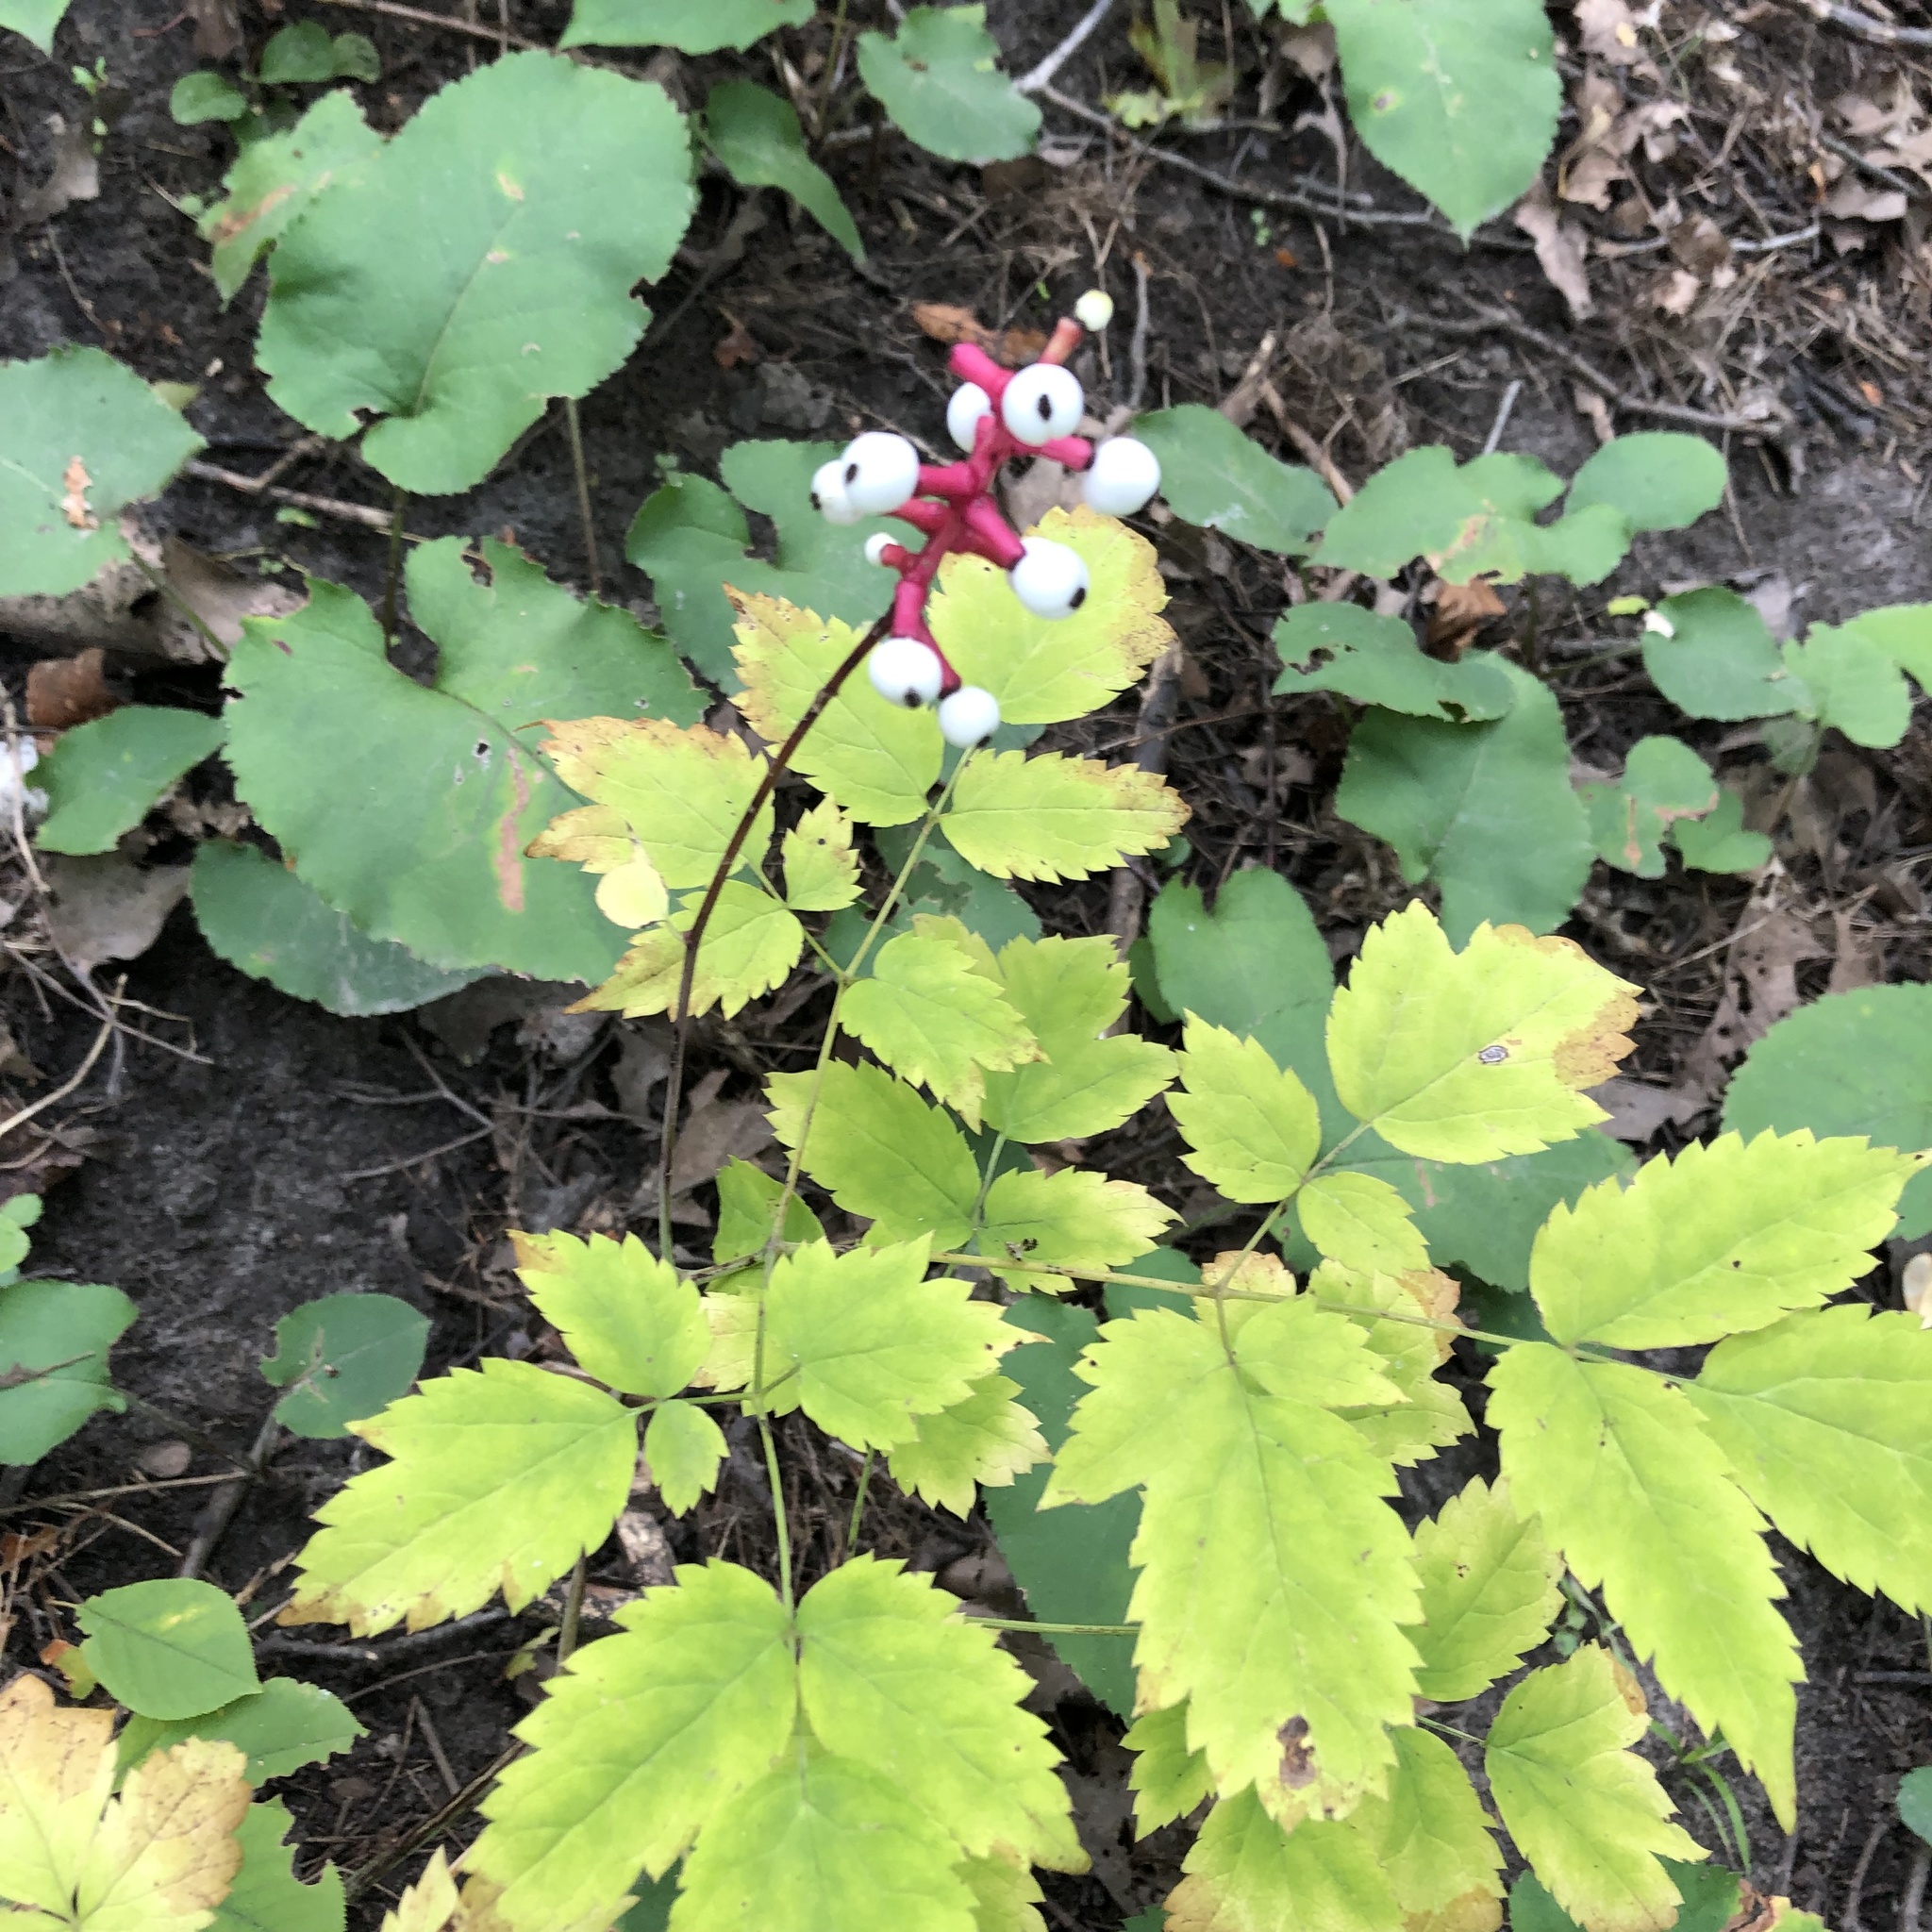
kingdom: Plantae
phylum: Tracheophyta
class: Magnoliopsida
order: Ranunculales
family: Ranunculaceae
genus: Actaea
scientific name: Actaea pachypoda
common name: Doll's-eyes
